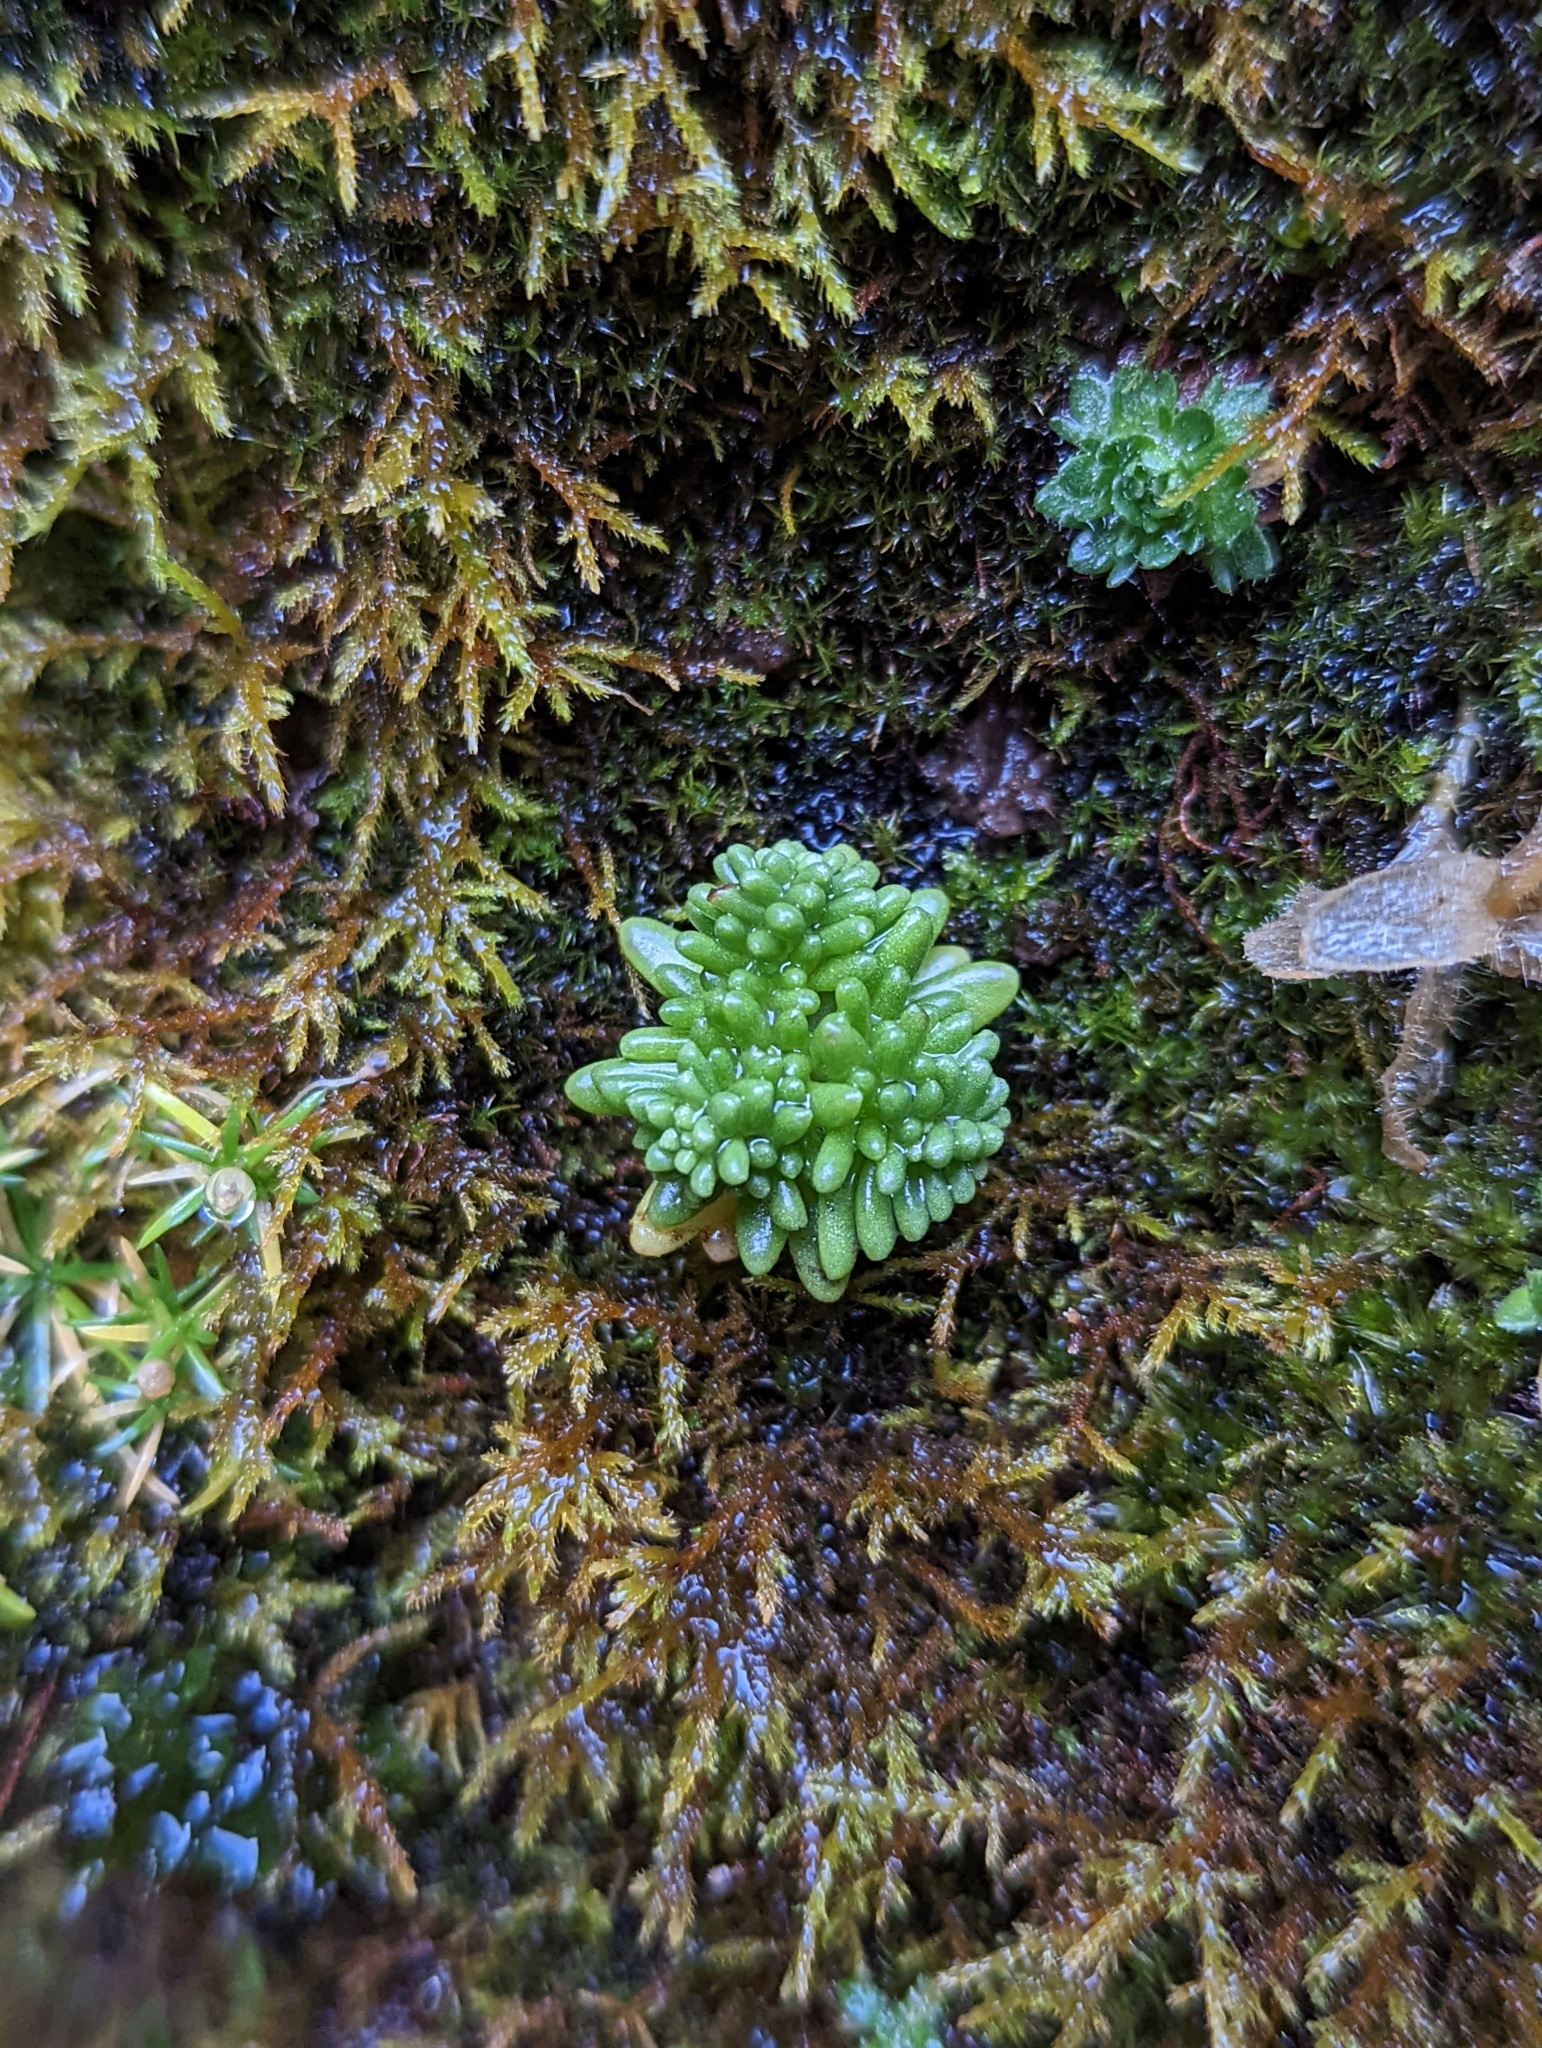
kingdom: Plantae
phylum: Tracheophyta
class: Magnoliopsida
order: Saxifragales
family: Crassulaceae
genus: Sedum
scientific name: Sedum annuum
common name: Annual stonecrop
